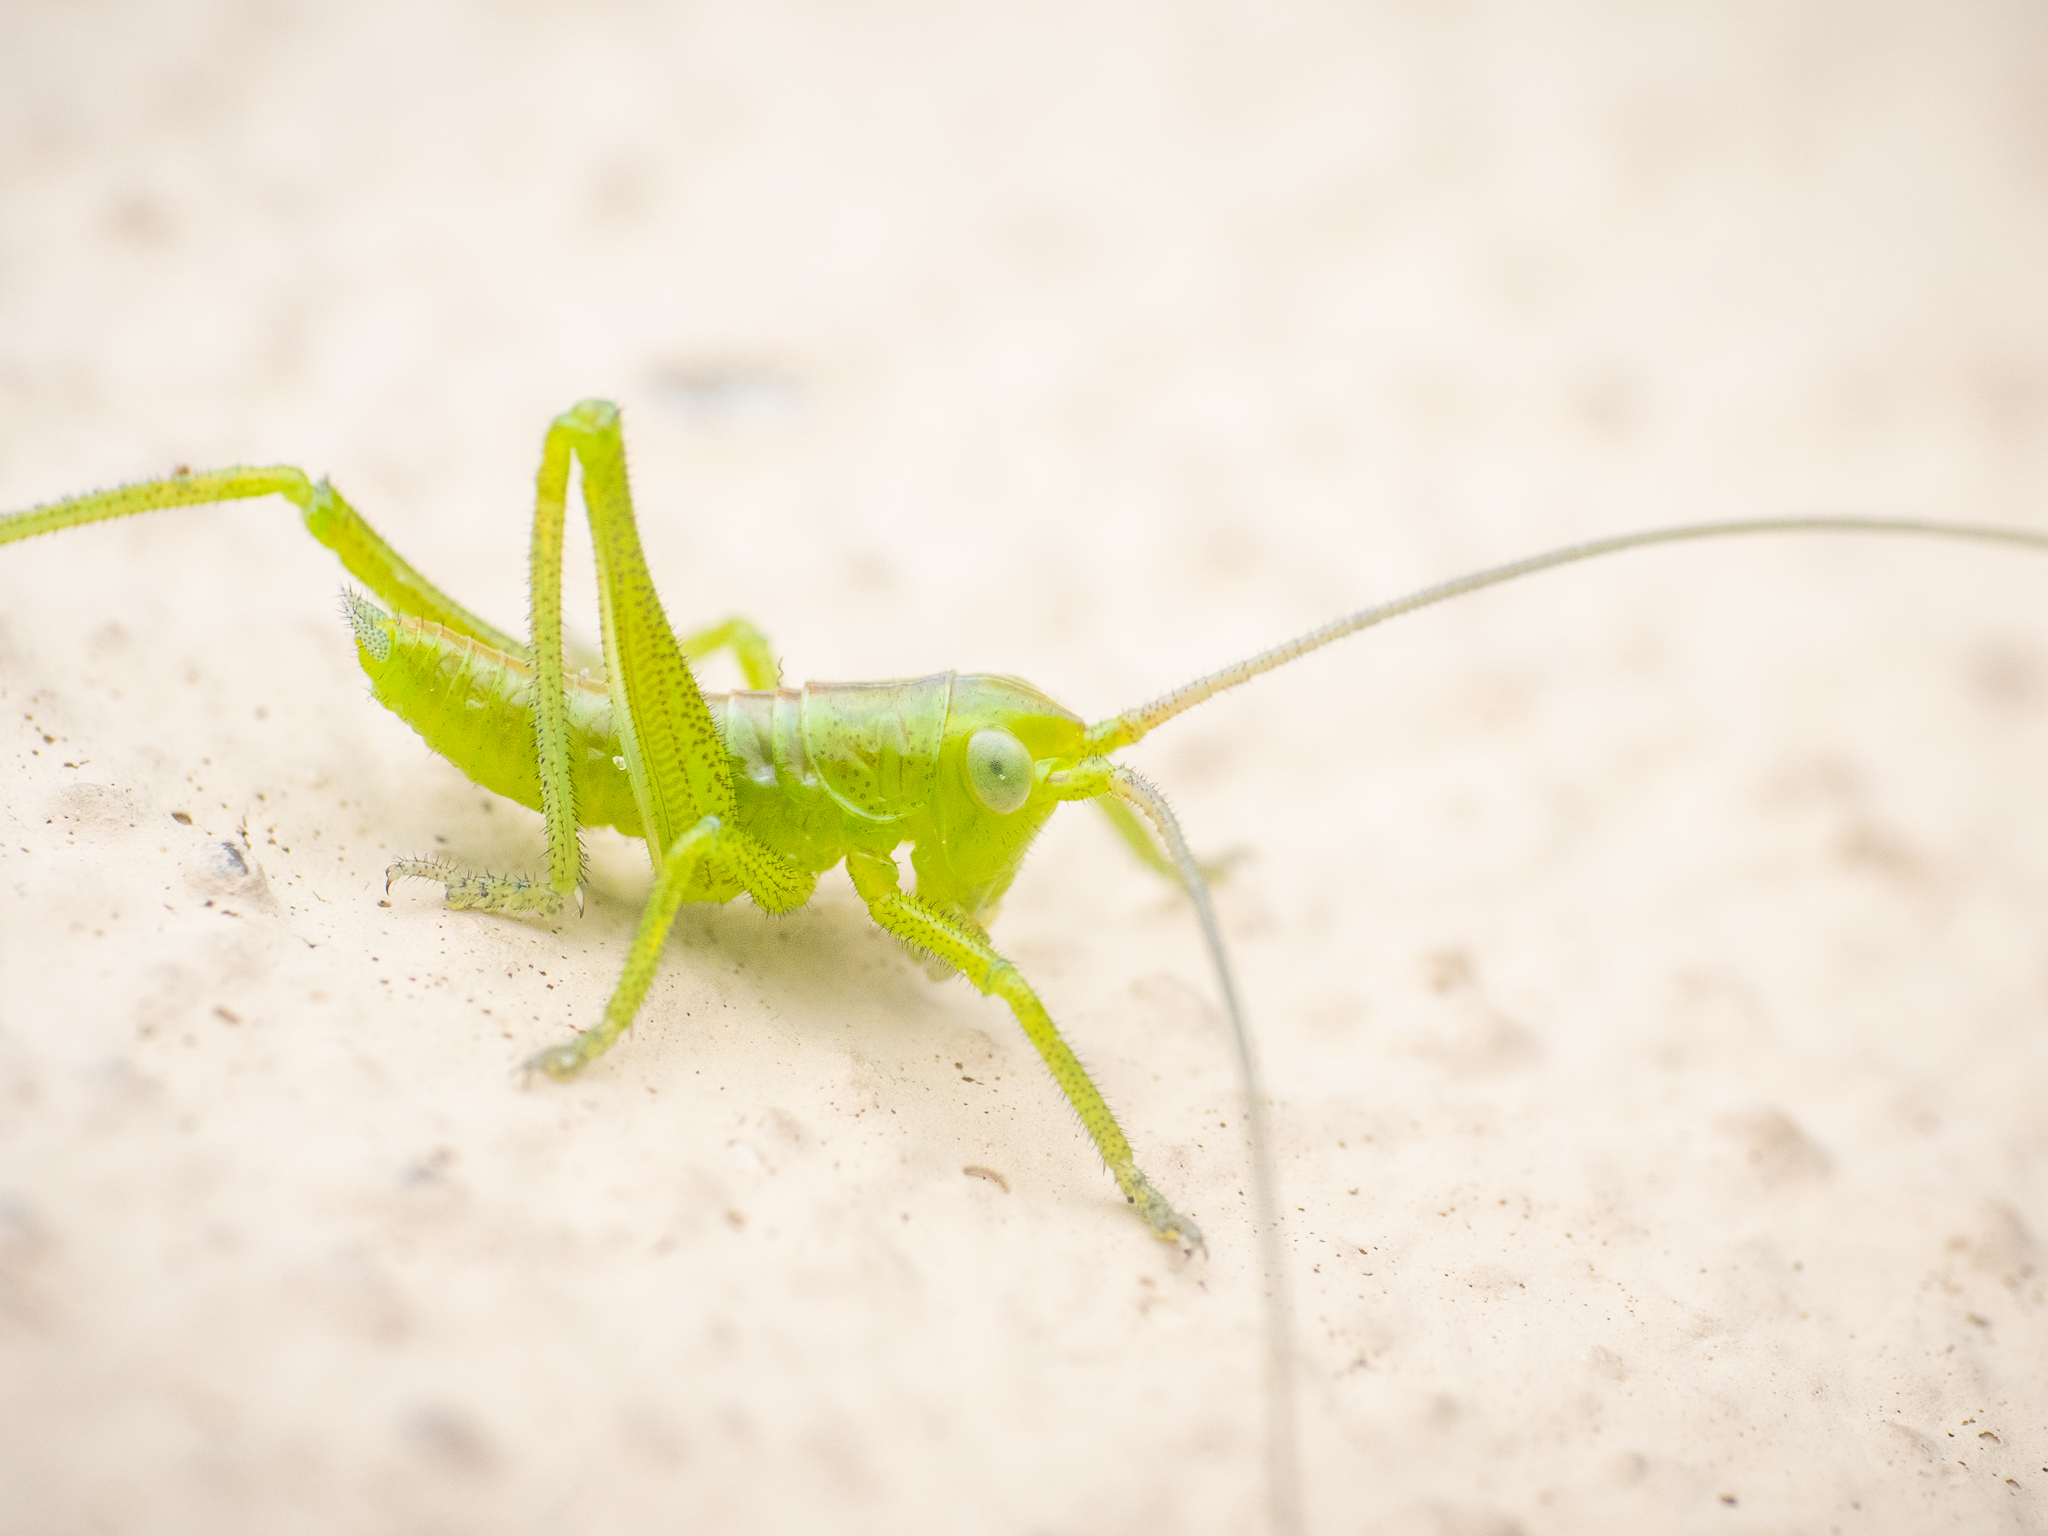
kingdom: Animalia
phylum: Arthropoda
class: Insecta
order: Orthoptera
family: Tettigoniidae
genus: Tettigonia
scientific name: Tettigonia viridissima
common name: Great green bush-cricket
